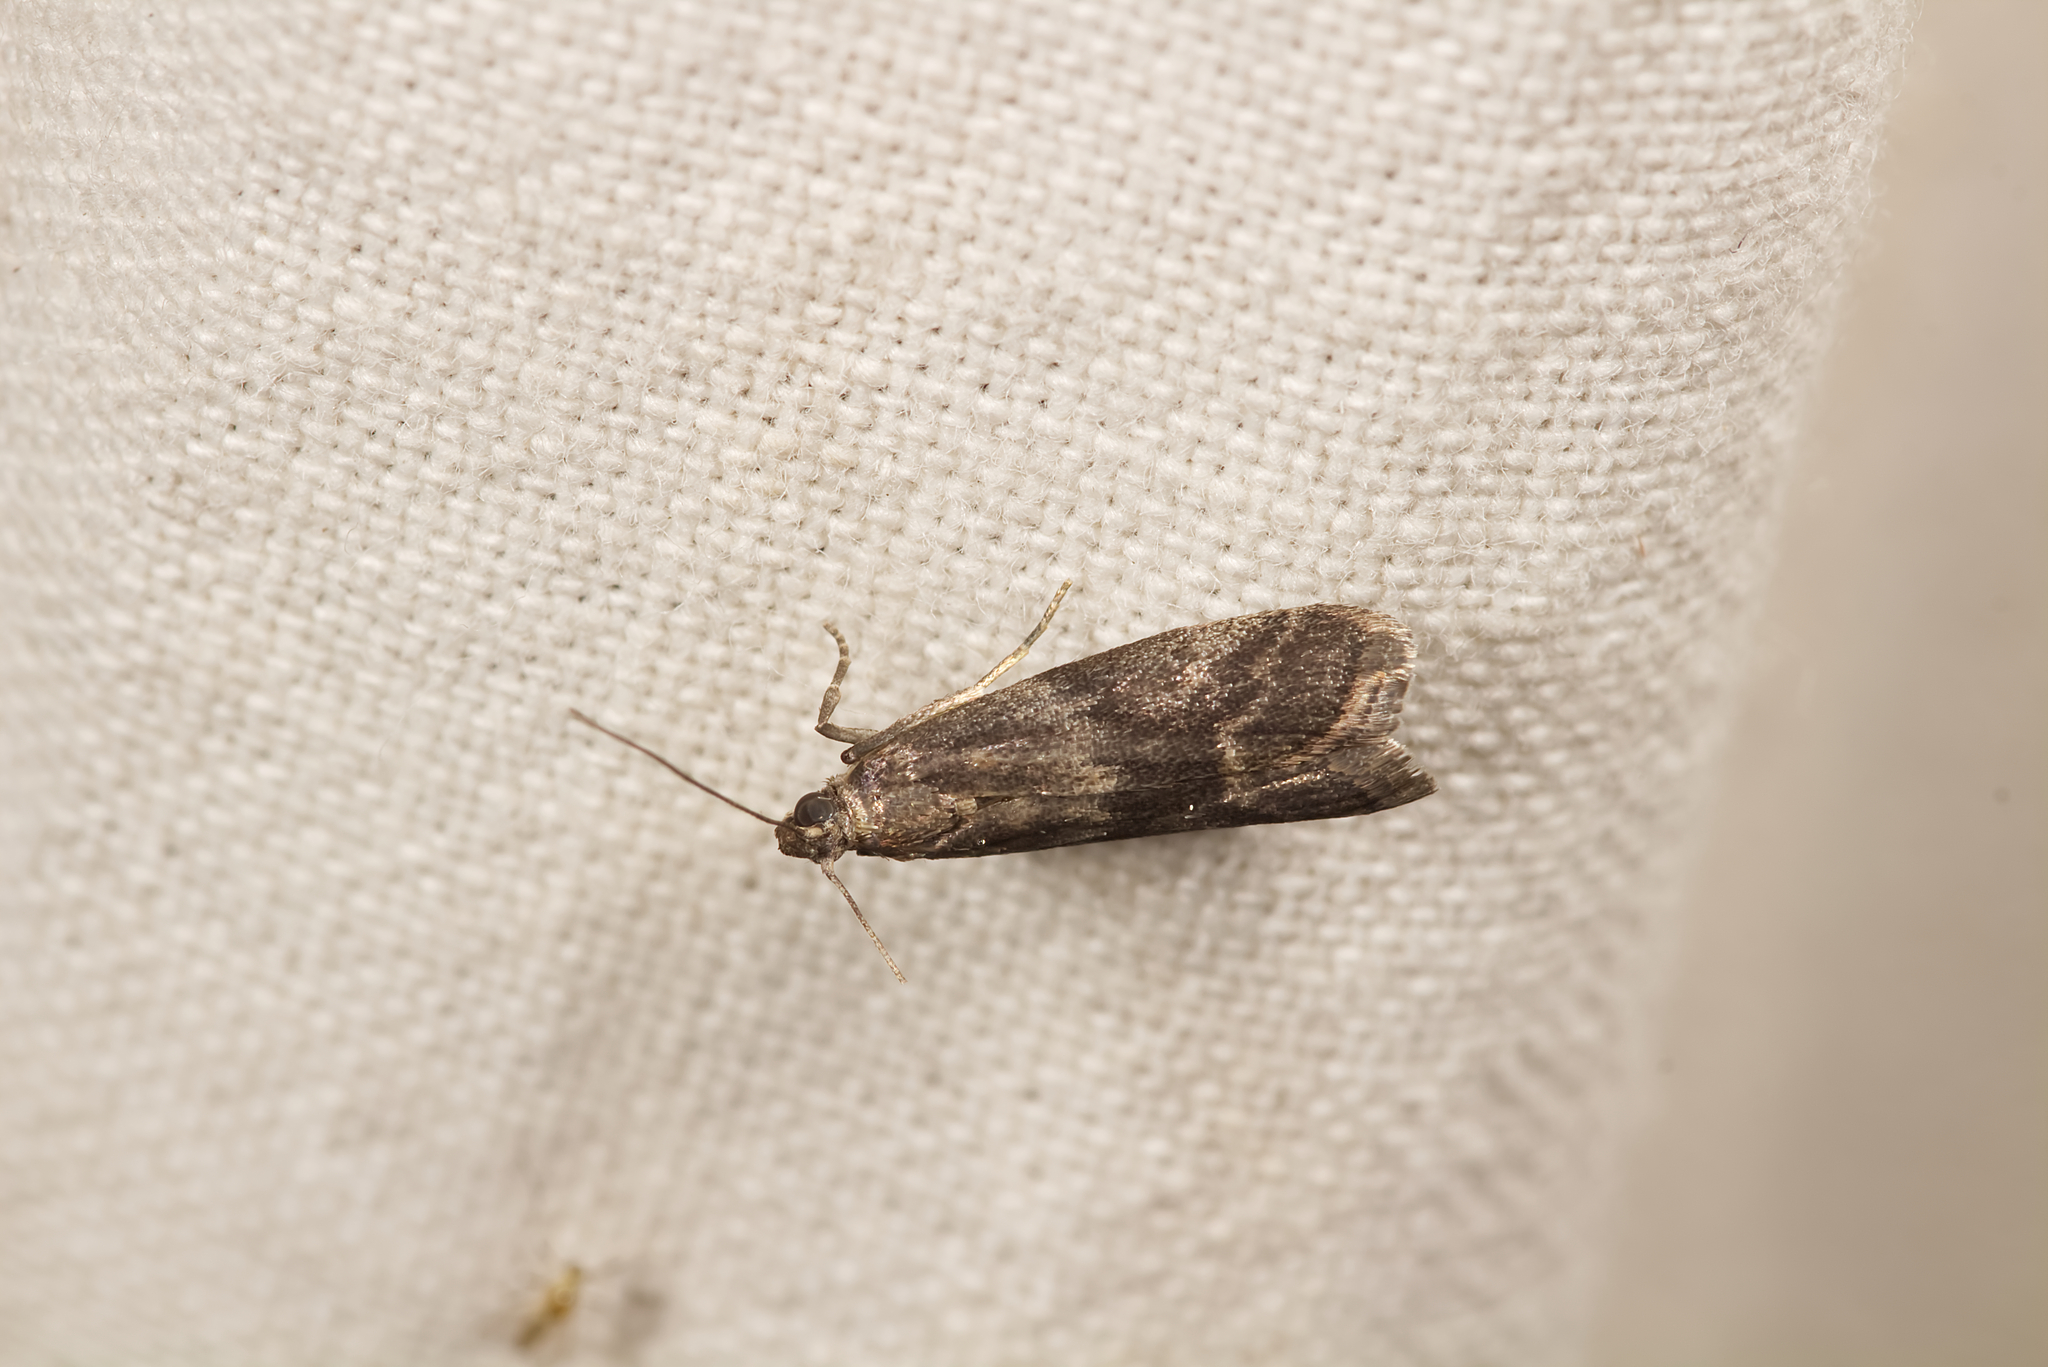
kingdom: Animalia
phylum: Arthropoda
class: Insecta
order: Lepidoptera
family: Pyralidae
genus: Glyptoteles
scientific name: Glyptoteles leucacrinella
